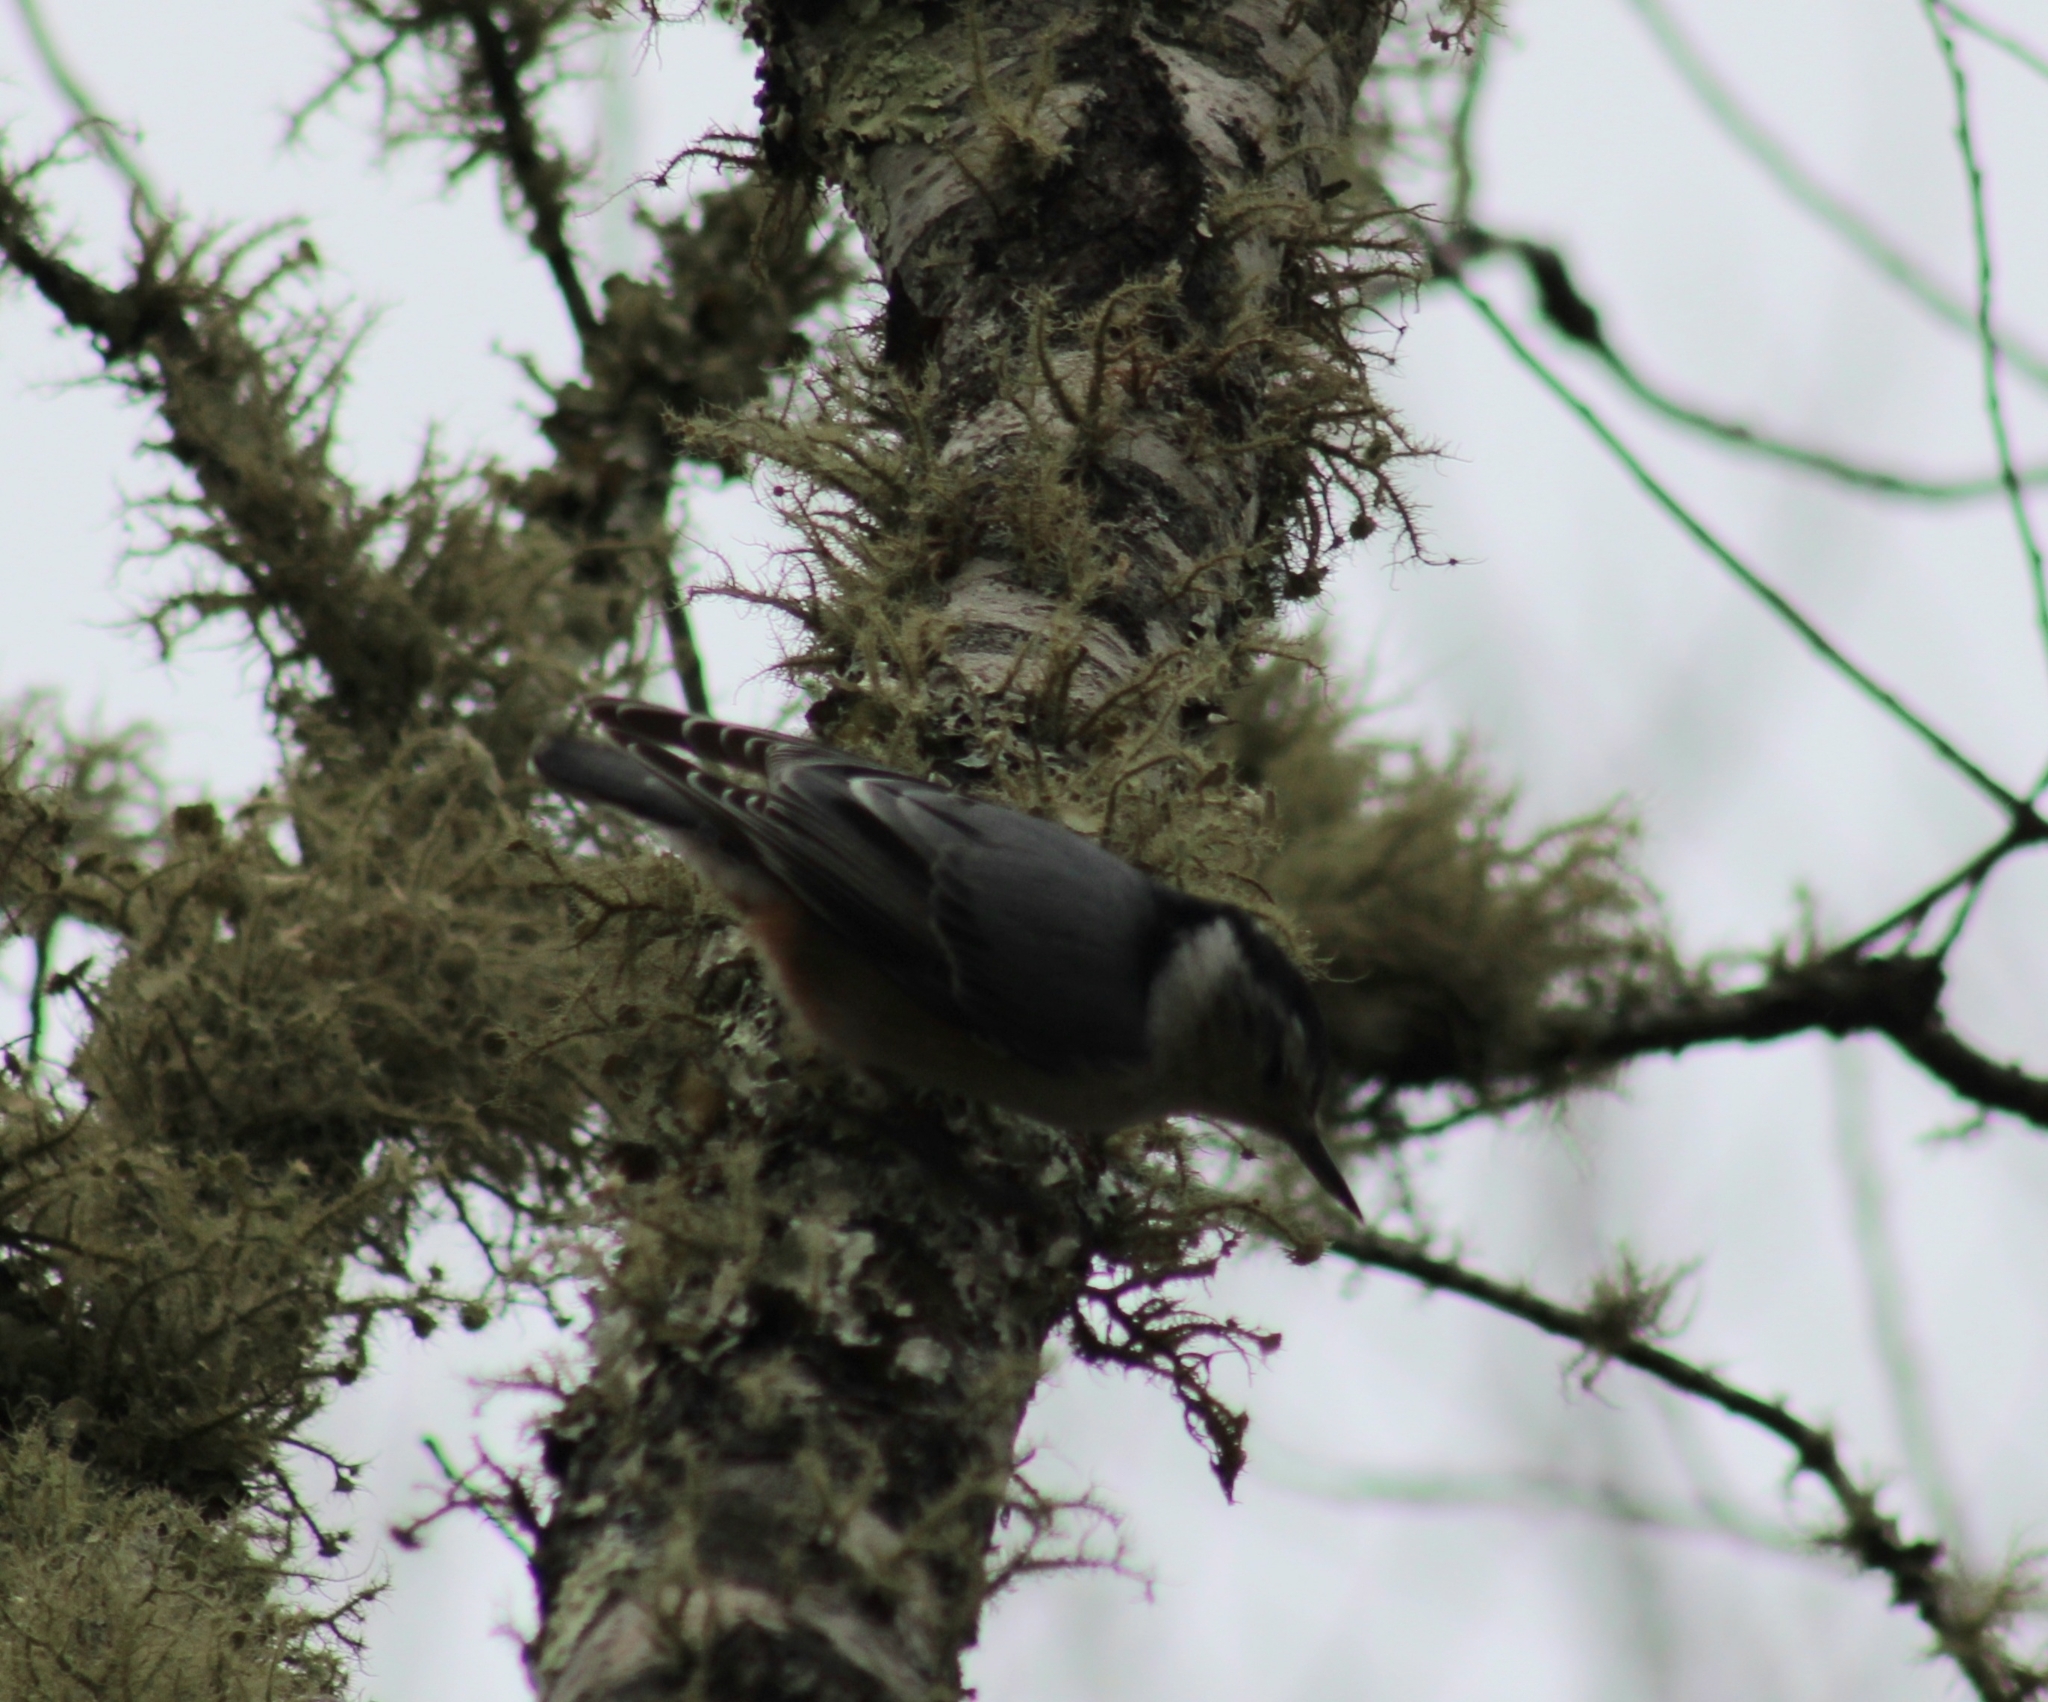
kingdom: Animalia
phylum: Chordata
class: Aves
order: Passeriformes
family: Sittidae
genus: Sitta
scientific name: Sitta carolinensis
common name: White-breasted nuthatch
